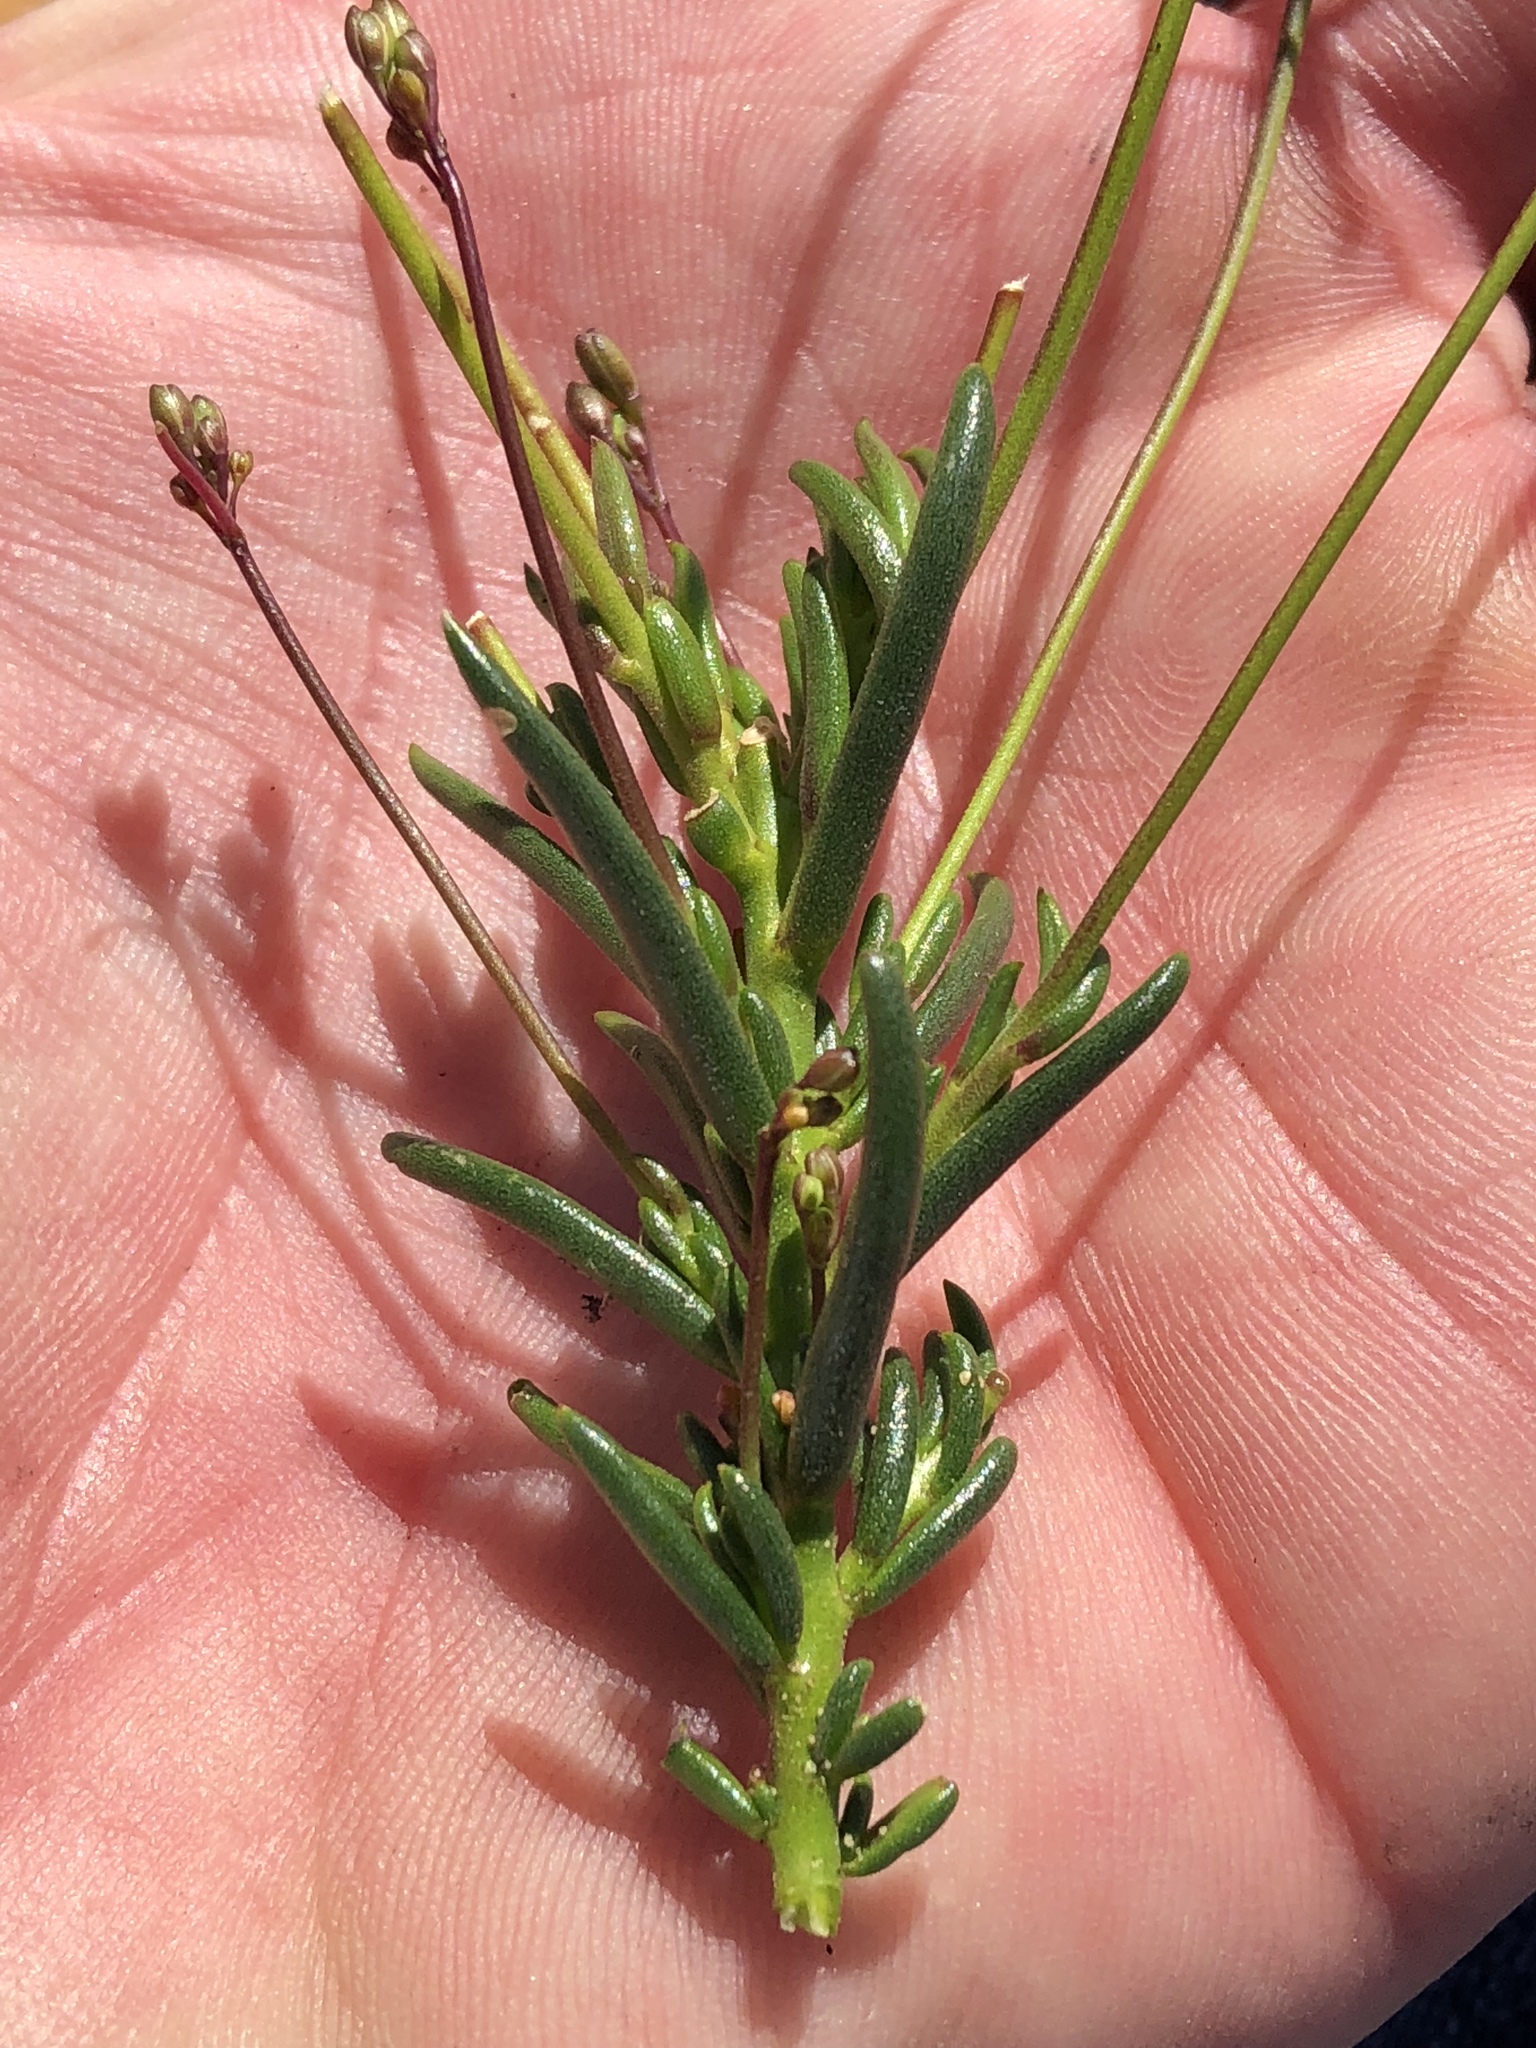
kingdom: Plantae
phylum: Tracheophyta
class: Magnoliopsida
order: Brassicales
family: Brassicaceae
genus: Heliophila
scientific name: Heliophila subulata
